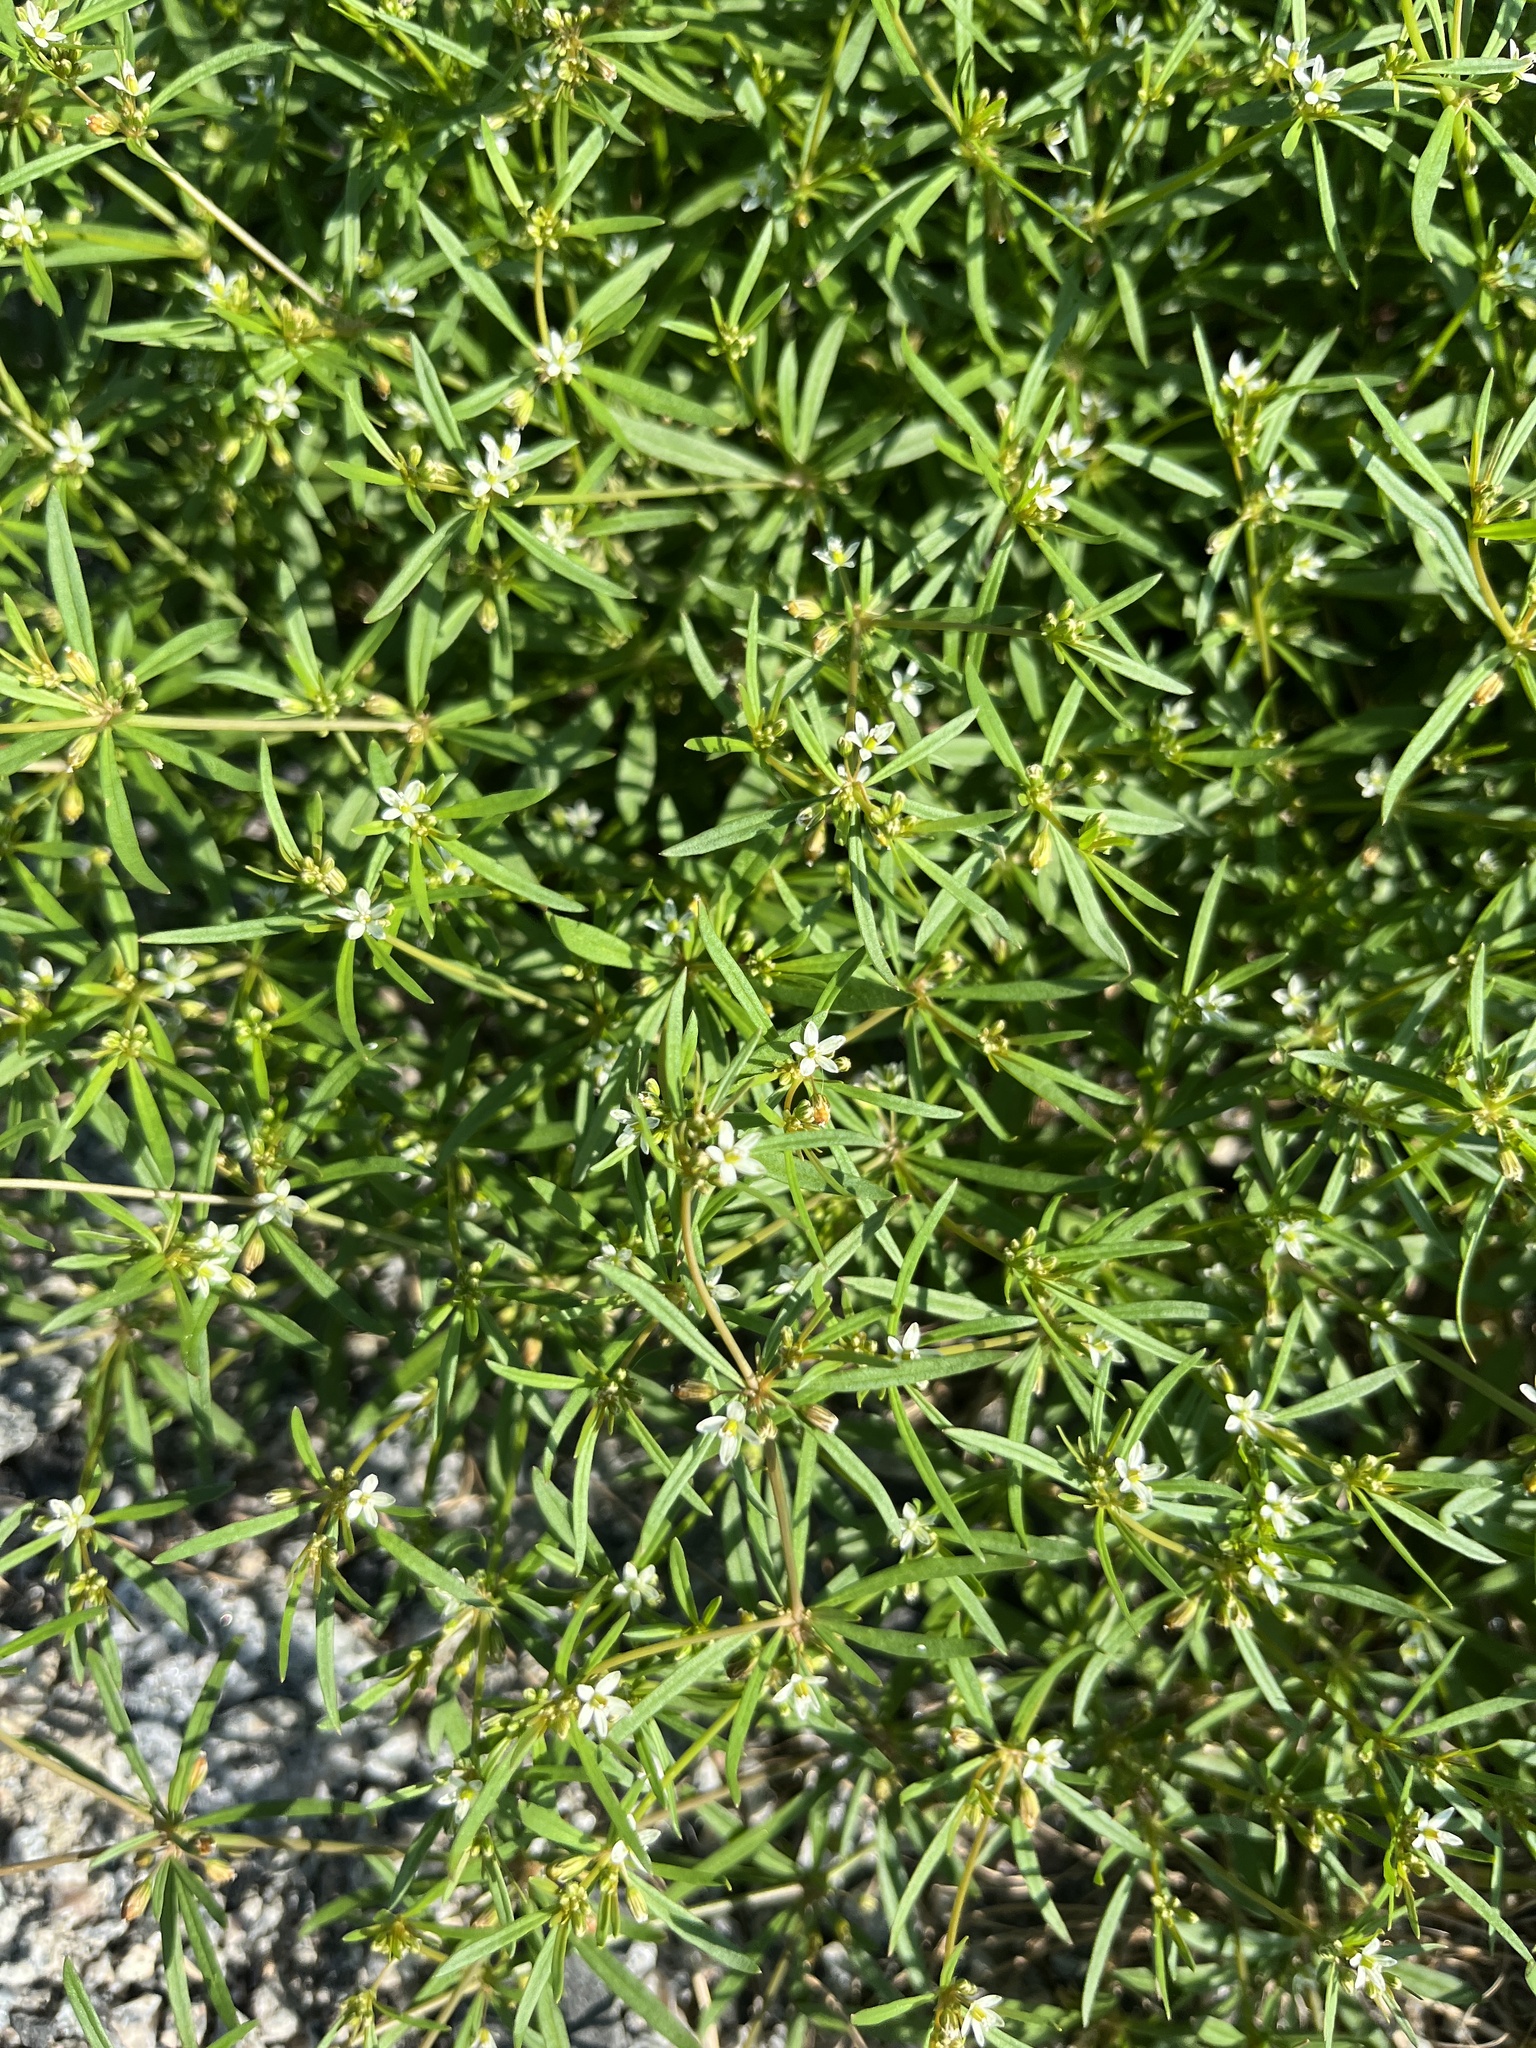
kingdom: Plantae
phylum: Tracheophyta
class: Magnoliopsida
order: Caryophyllales
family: Molluginaceae
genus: Mollugo
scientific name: Mollugo verticillata
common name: Green carpetweed
